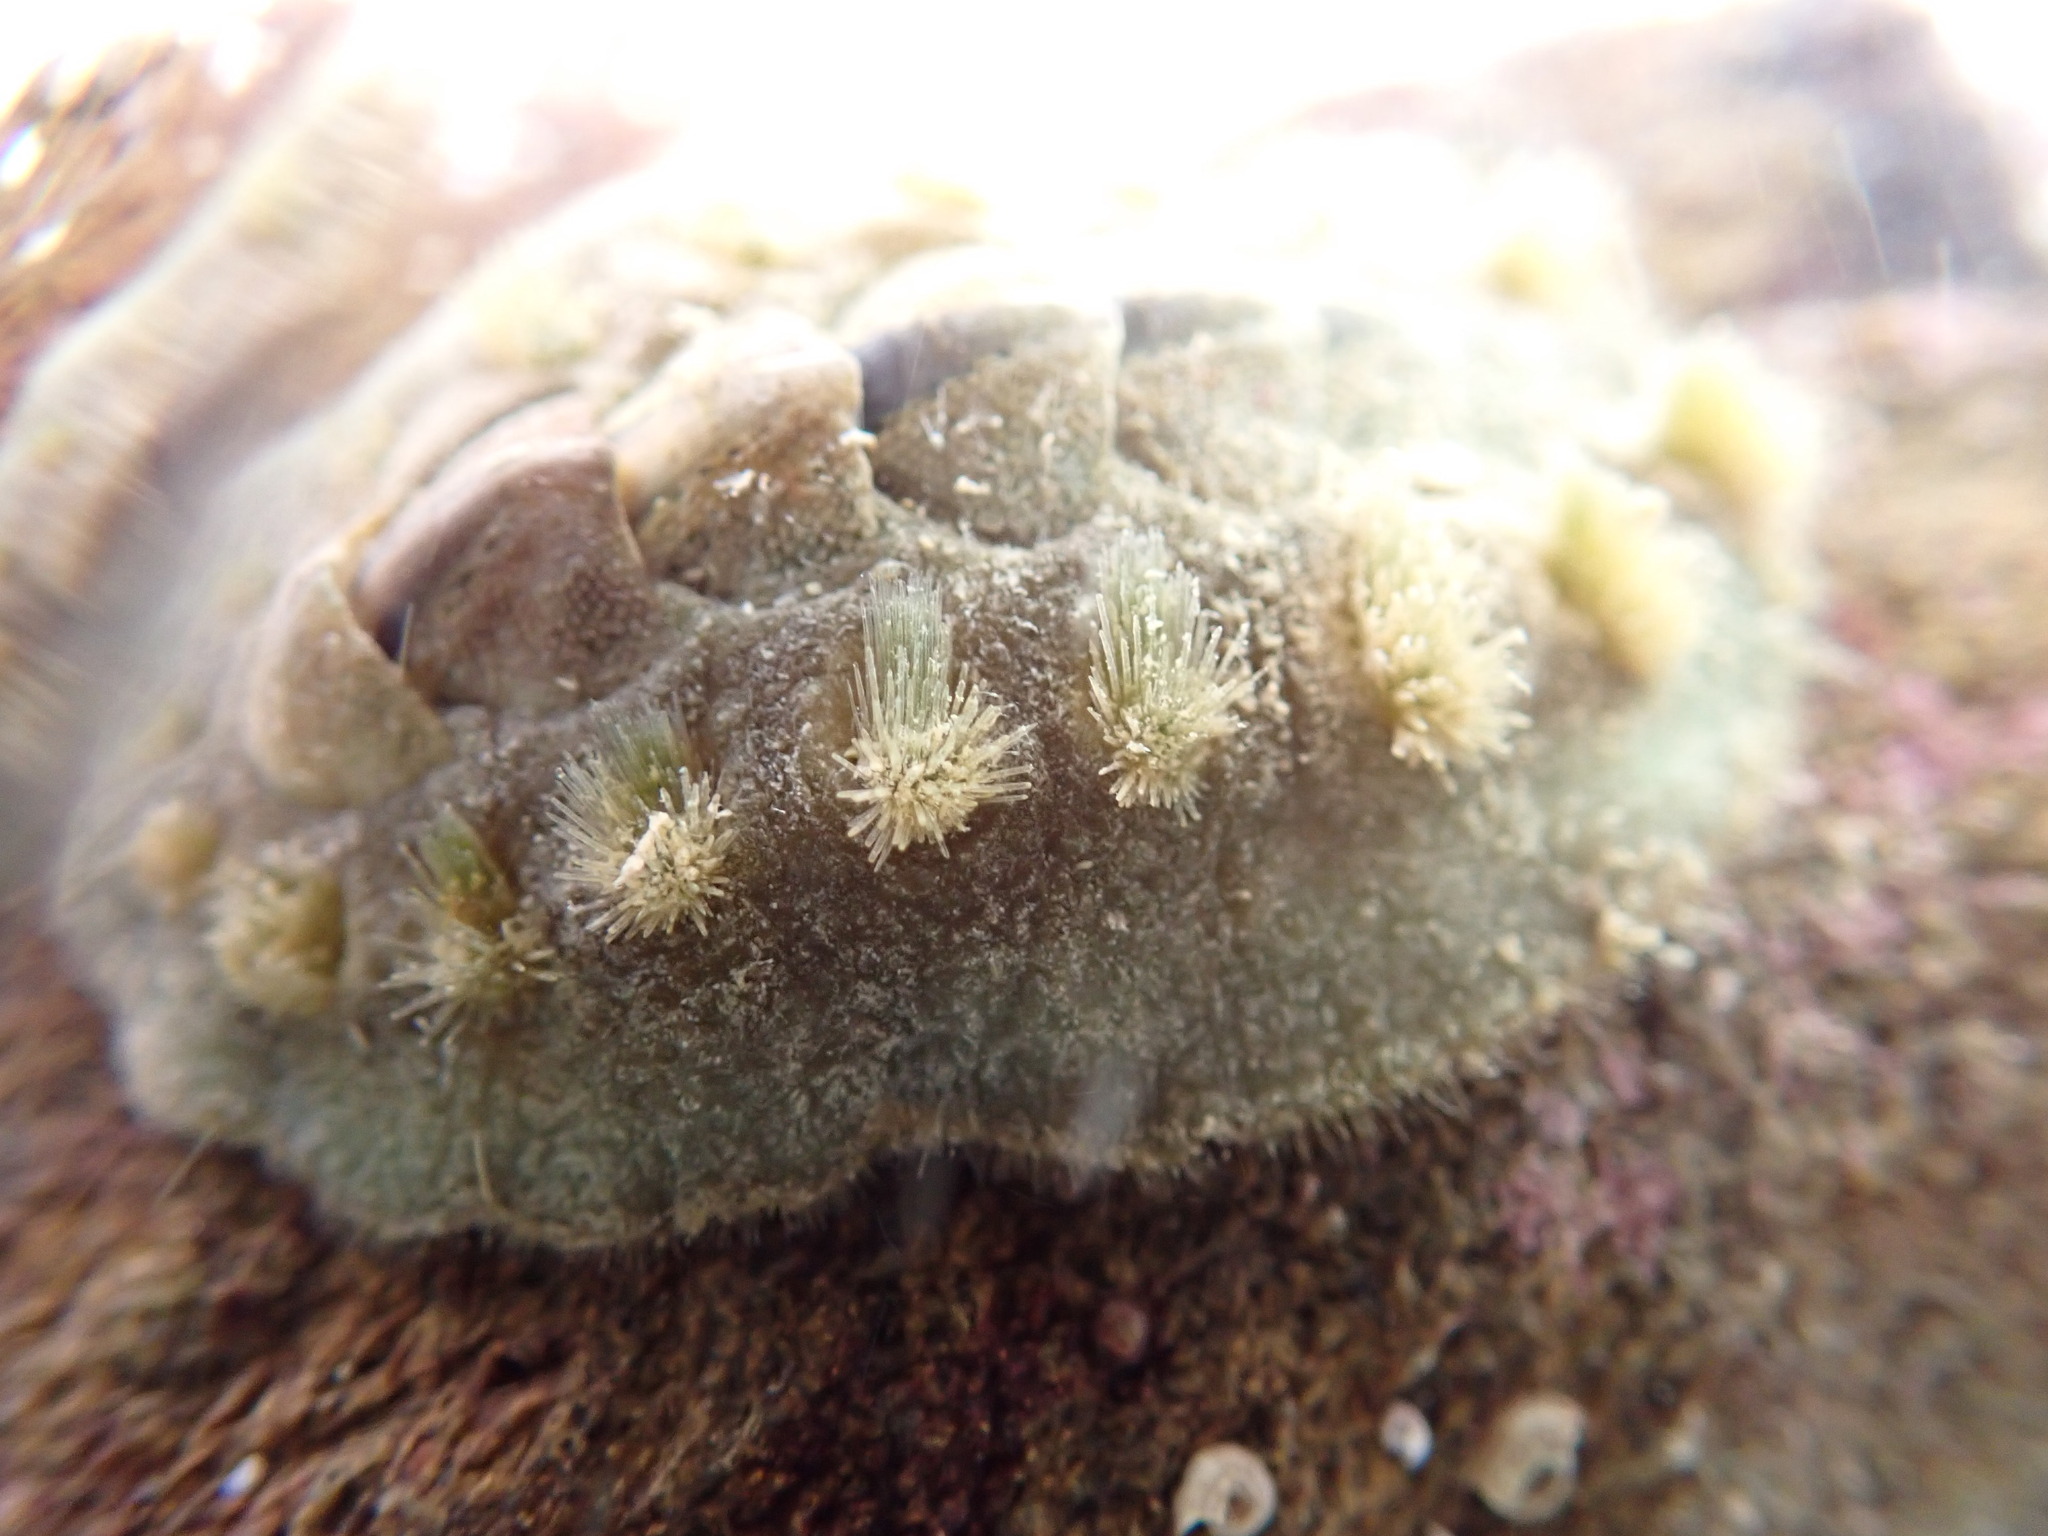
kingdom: Animalia
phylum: Mollusca
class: Polyplacophora
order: Chitonida
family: Acanthochitonidae
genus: Acanthochitona
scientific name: Acanthochitona zelandica
